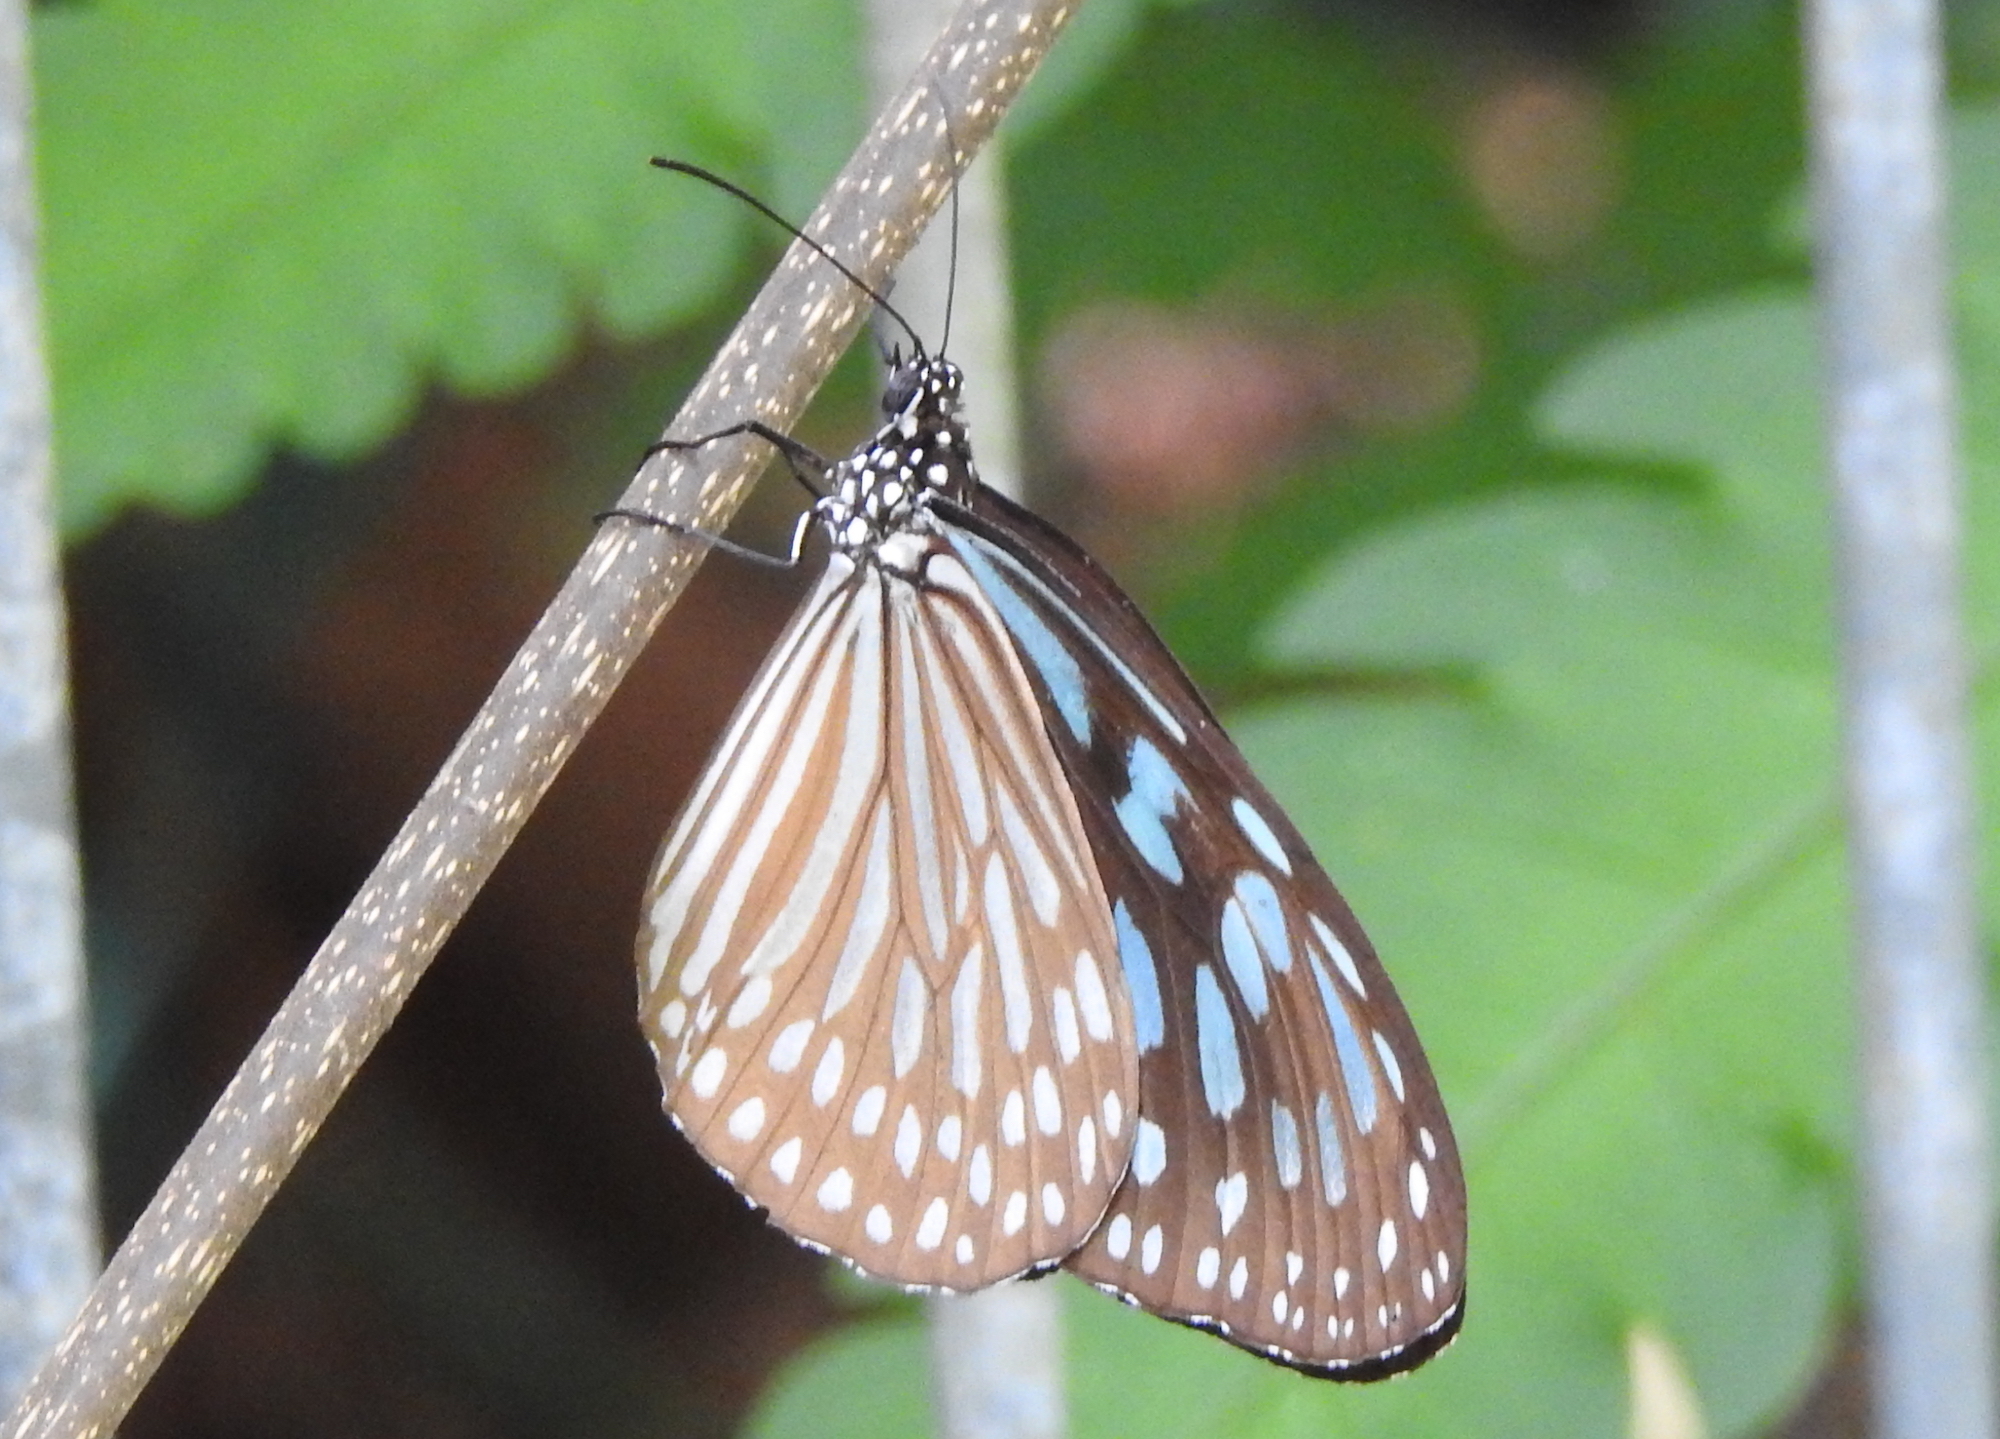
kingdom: Animalia
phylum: Arthropoda
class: Insecta
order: Lepidoptera
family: Nymphalidae
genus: Ideopsis
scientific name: Ideopsis similis
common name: Ceylon blue glassy tiger
